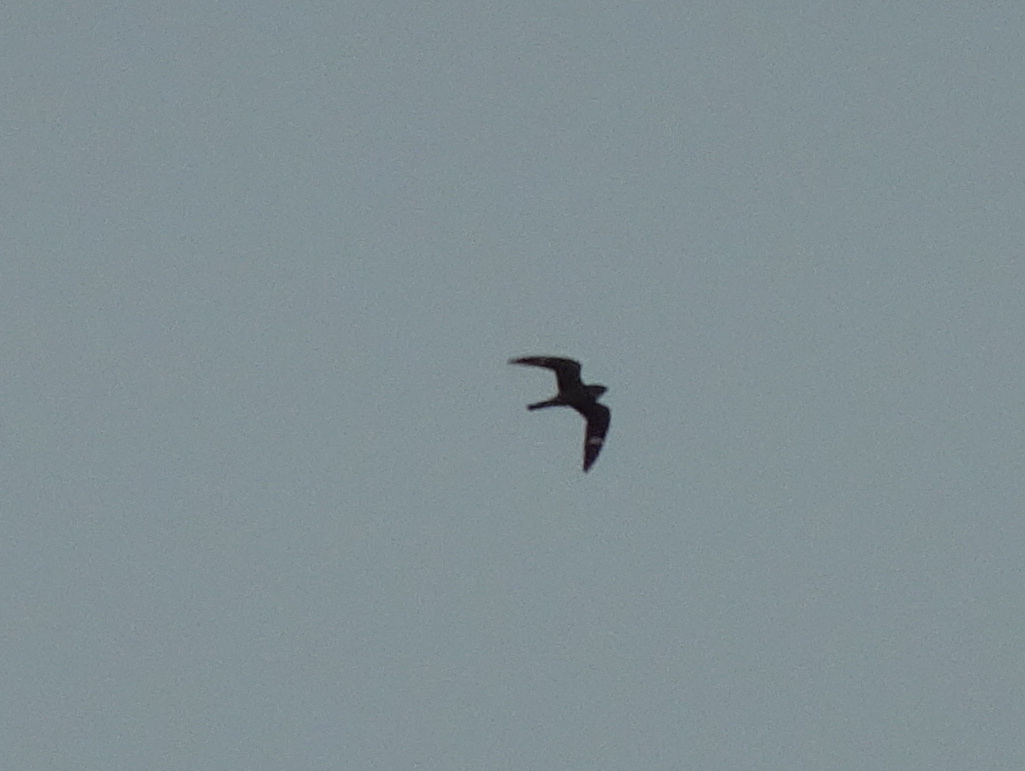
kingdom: Animalia
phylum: Chordata
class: Aves
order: Caprimulgiformes
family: Caprimulgidae
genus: Chordeiles
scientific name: Chordeiles gundlachii
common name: Antillean nighthawk
